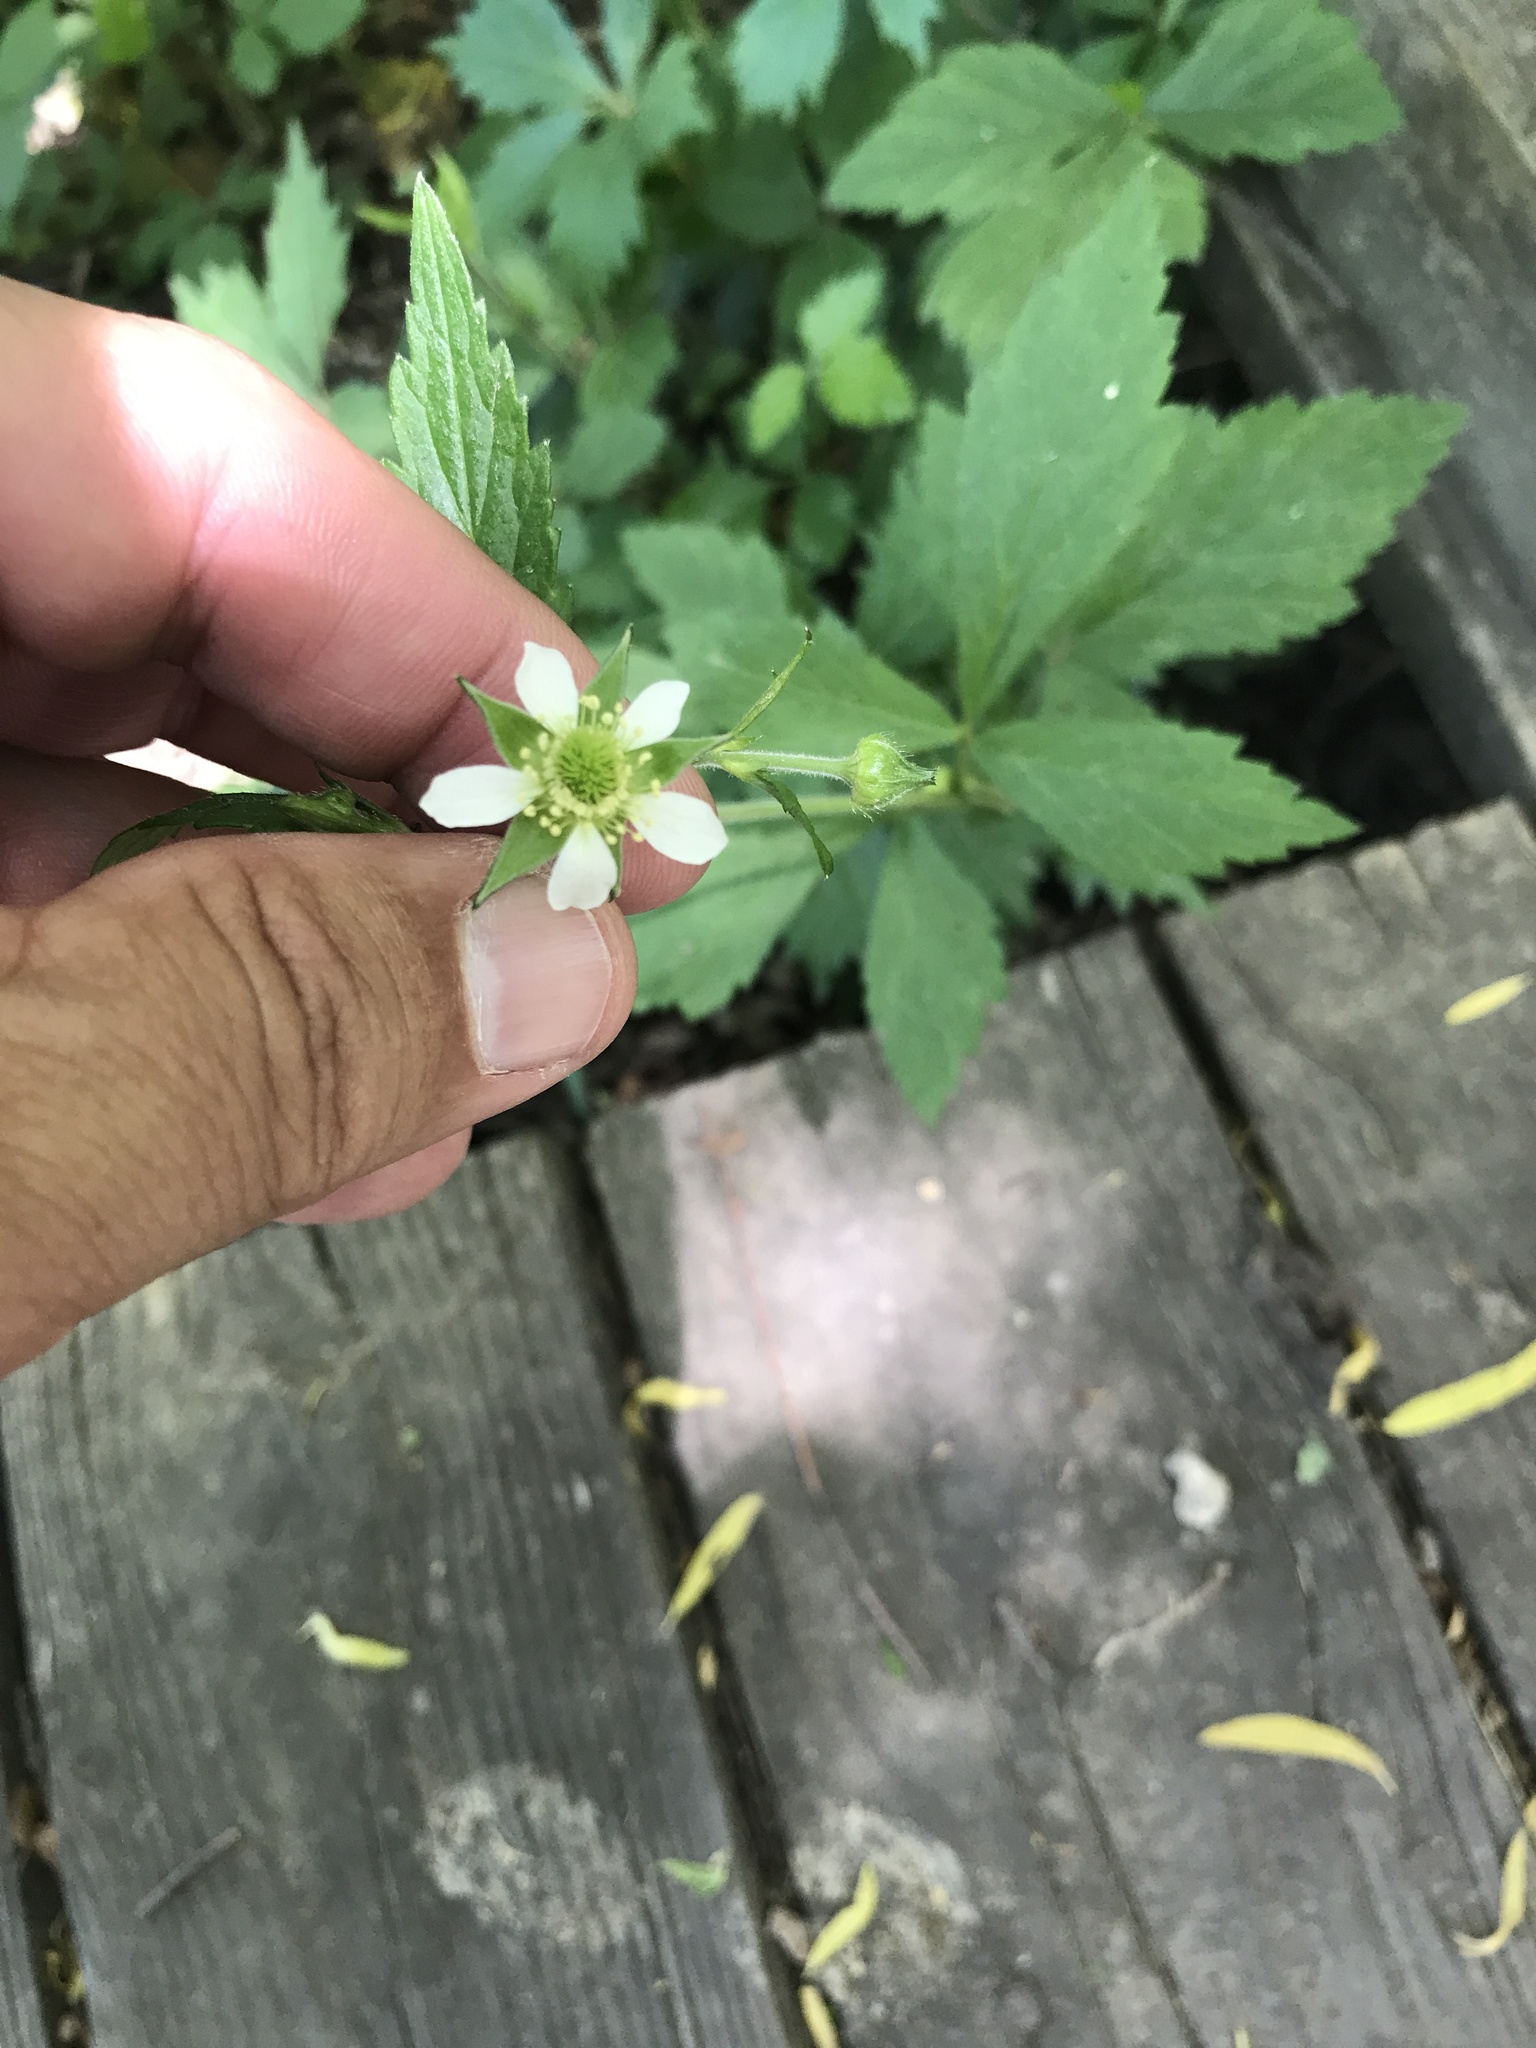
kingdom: Plantae
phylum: Tracheophyta
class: Magnoliopsida
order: Rosales
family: Rosaceae
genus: Geum
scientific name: Geum canadense
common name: White avens
